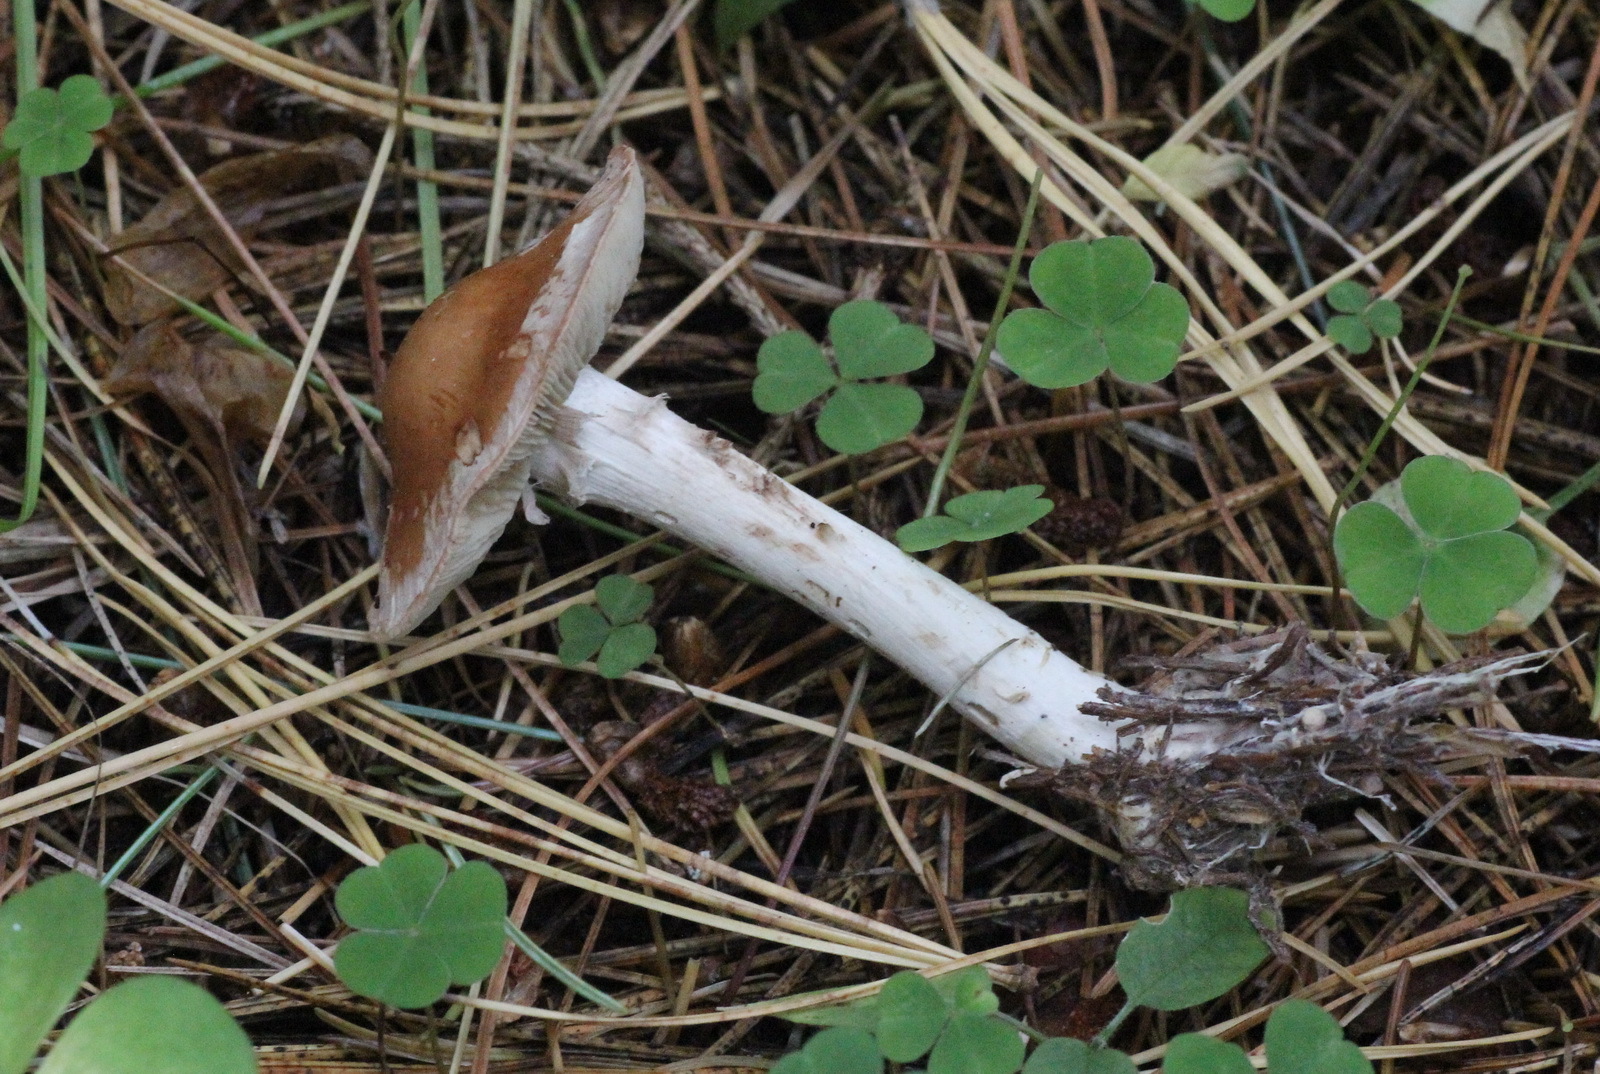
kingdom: Fungi
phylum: Basidiomycota
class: Agaricomycetes
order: Agaricales
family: Tricholomataceae
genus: Leucocortinarius
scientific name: Leucocortinarius bulbiger
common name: White webcap
